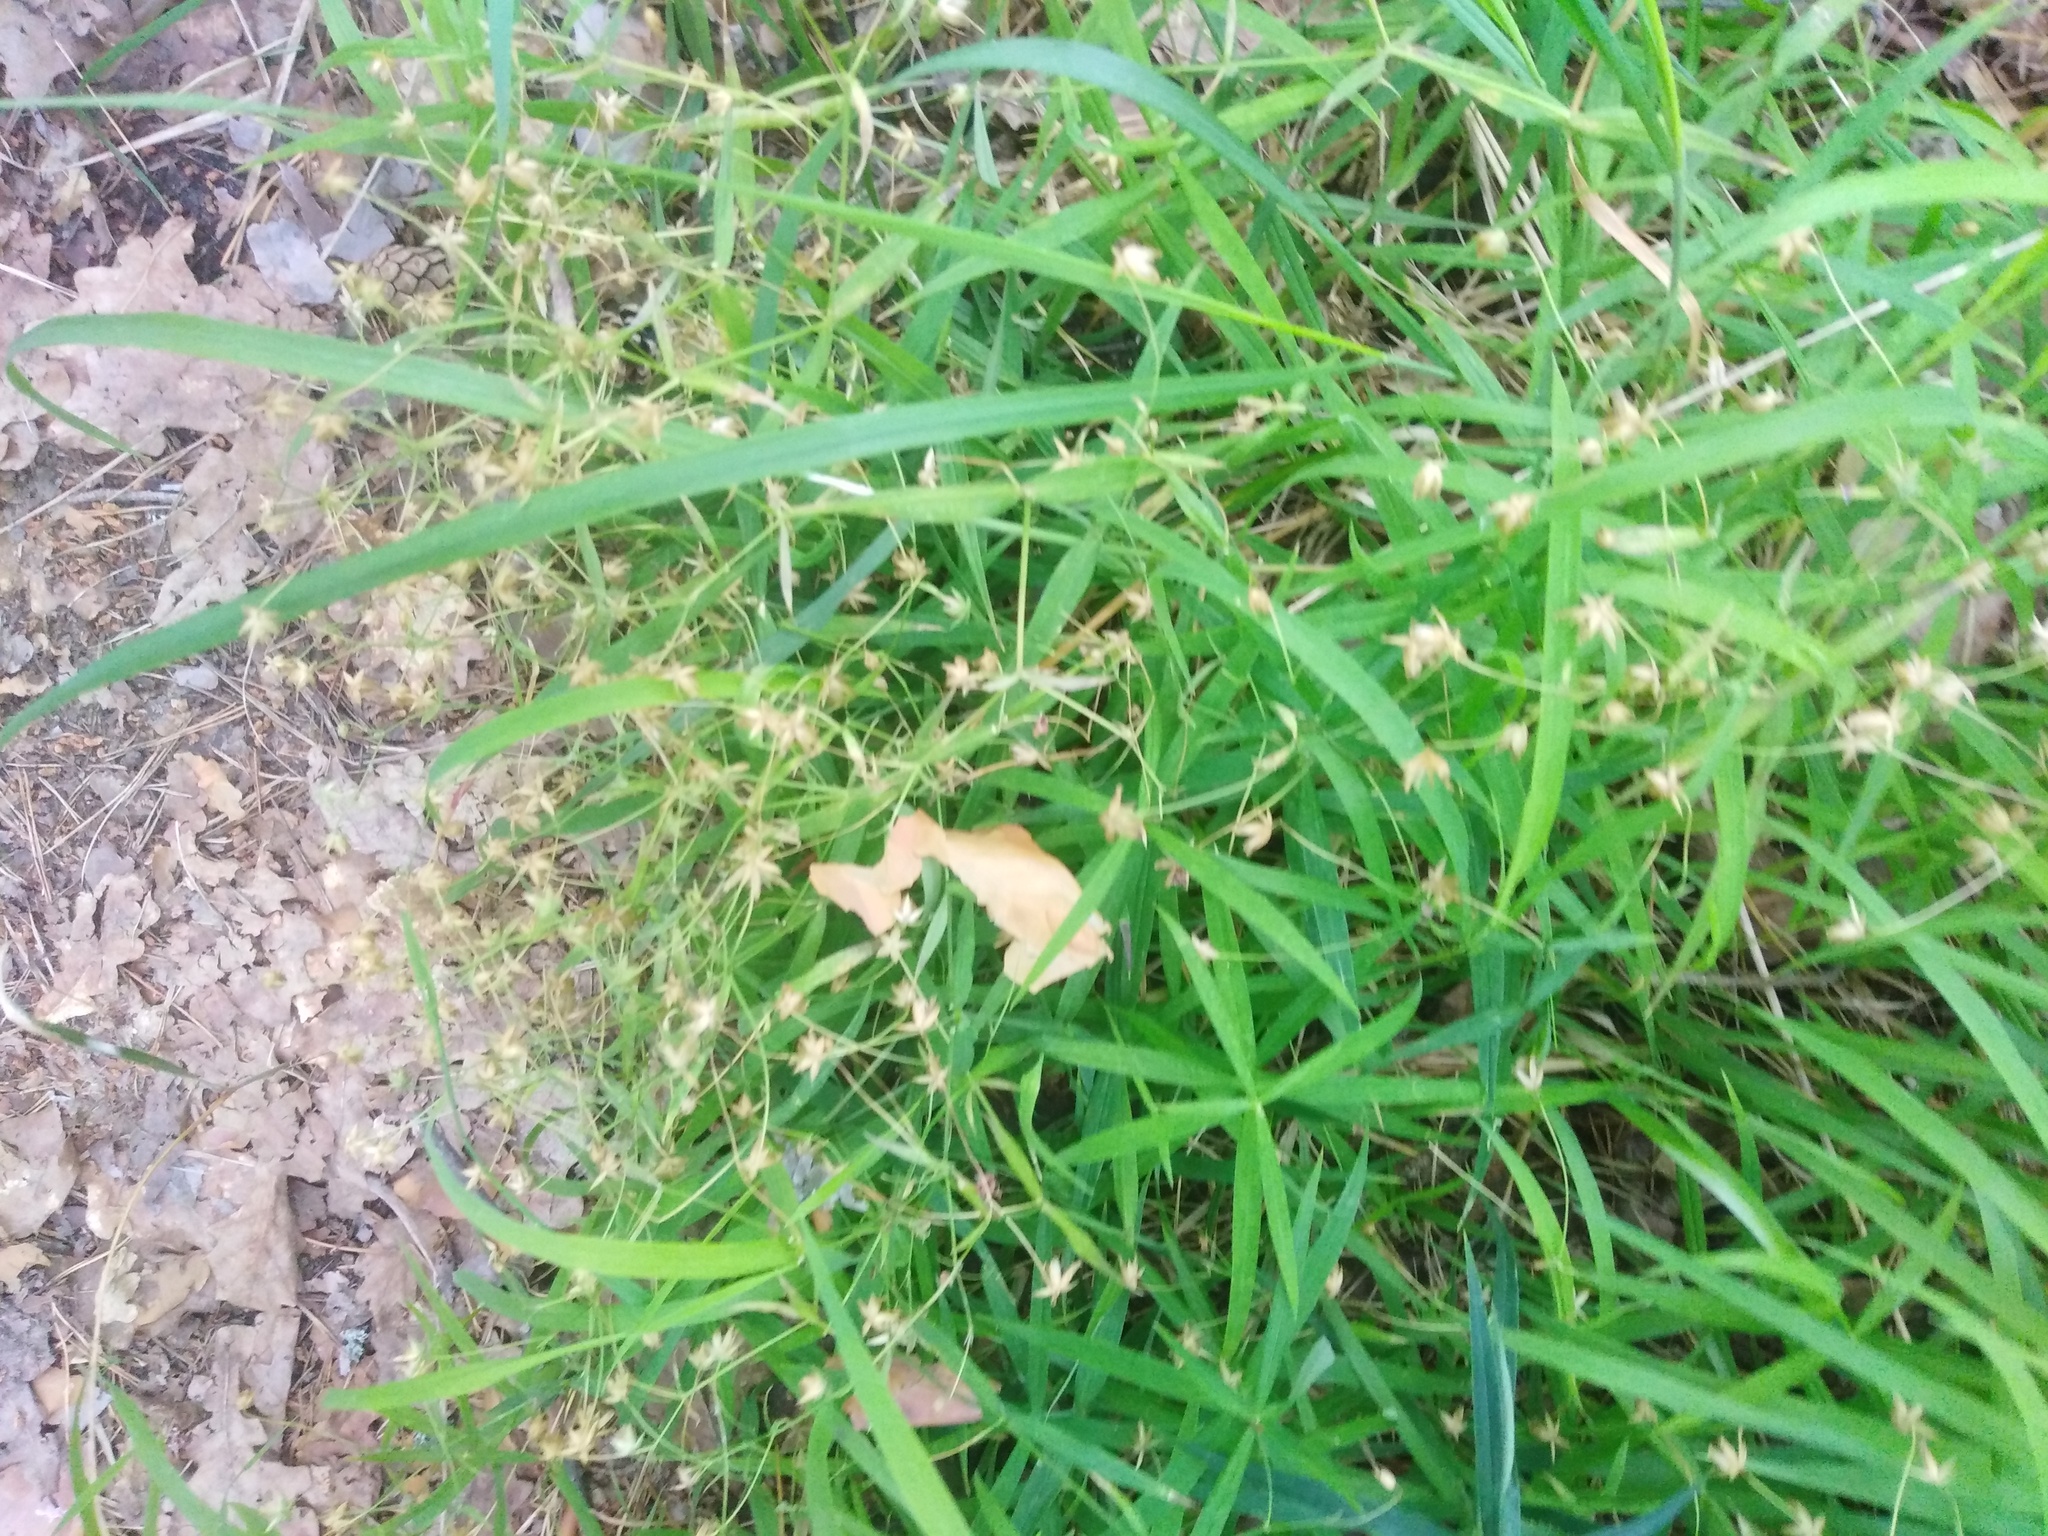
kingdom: Plantae
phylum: Tracheophyta
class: Magnoliopsida
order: Caryophyllales
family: Caryophyllaceae
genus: Rabelera
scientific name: Rabelera holostea
